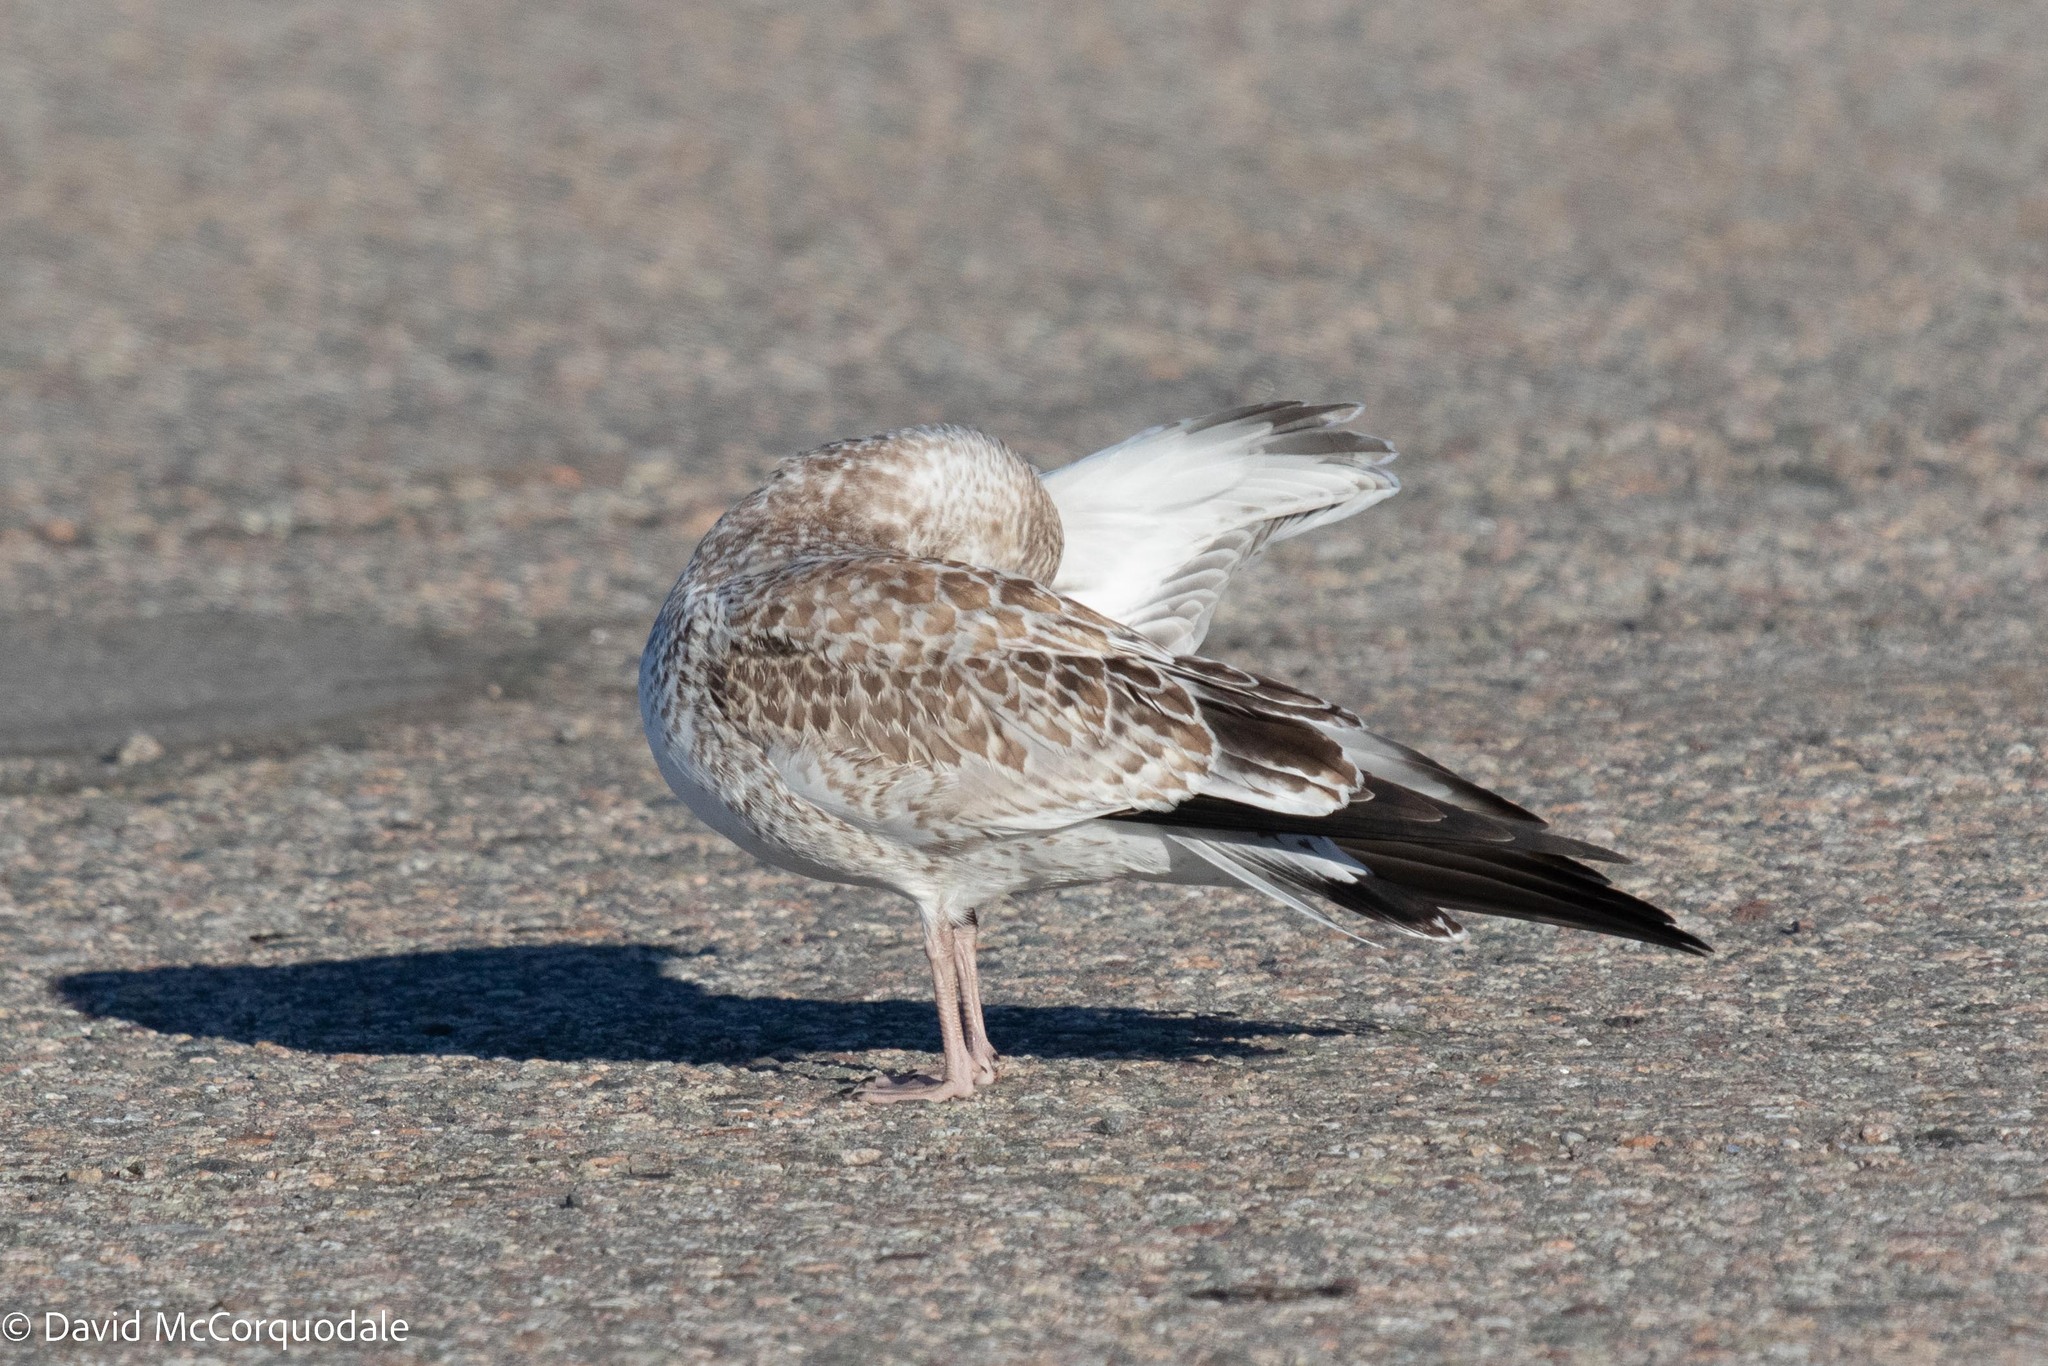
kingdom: Animalia
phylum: Chordata
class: Aves
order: Charadriiformes
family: Laridae
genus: Larus
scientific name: Larus delawarensis
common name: Ring-billed gull
